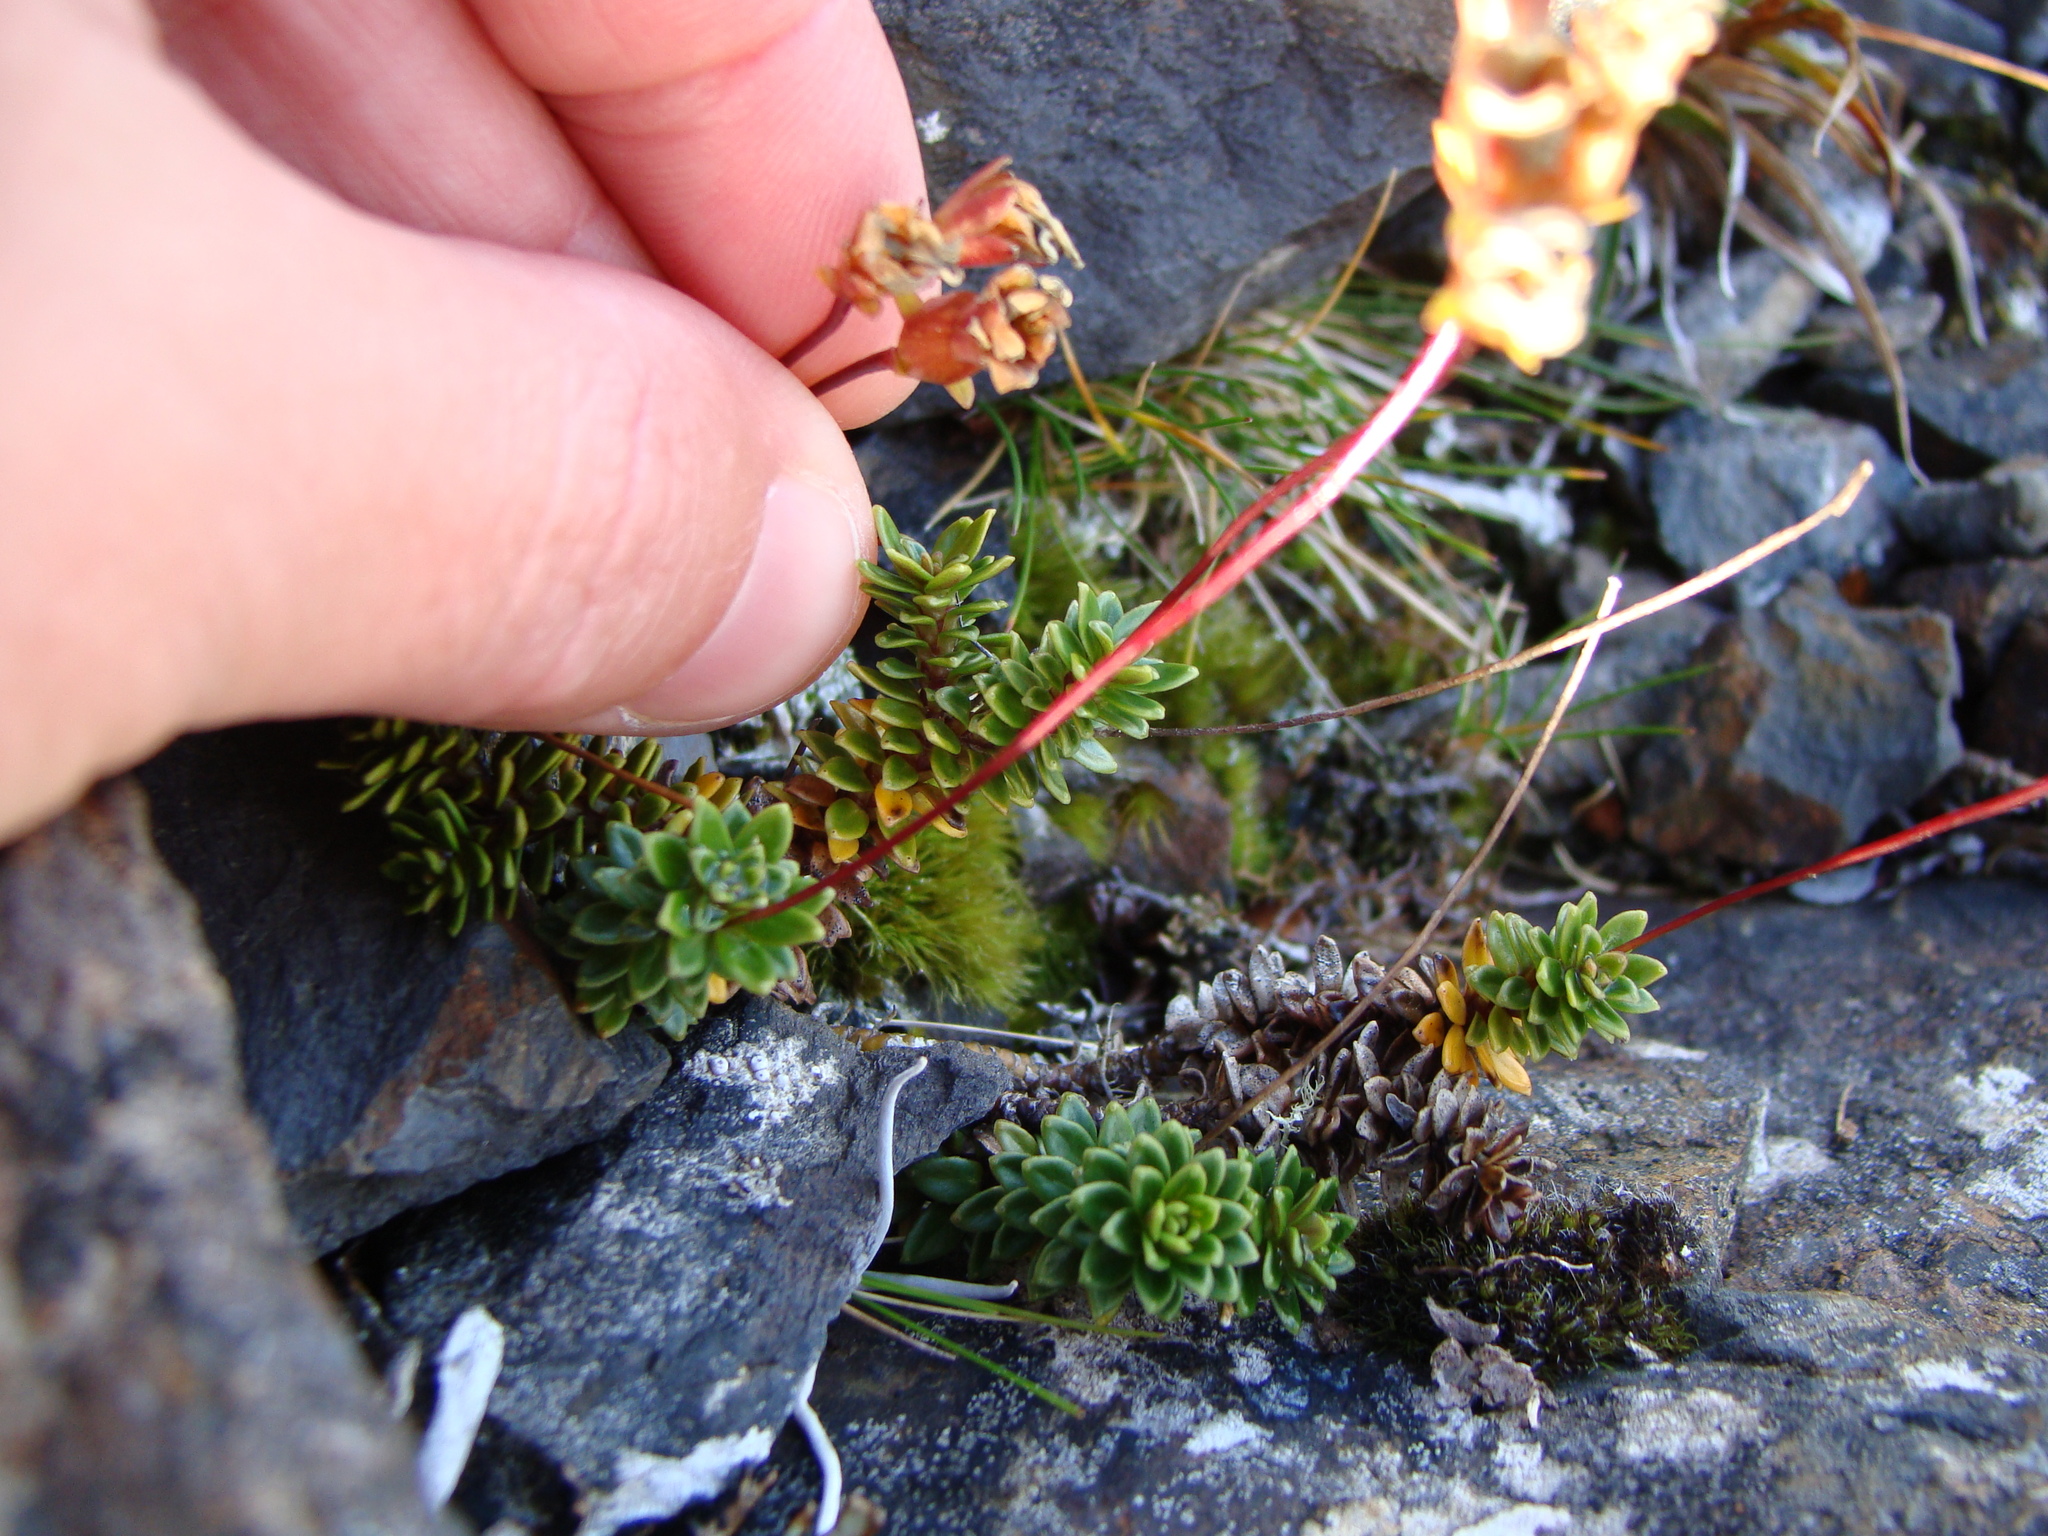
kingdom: Plantae
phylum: Tracheophyta
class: Magnoliopsida
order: Asterales
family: Stylidiaceae
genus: Forstera
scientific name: Forstera mackayi
